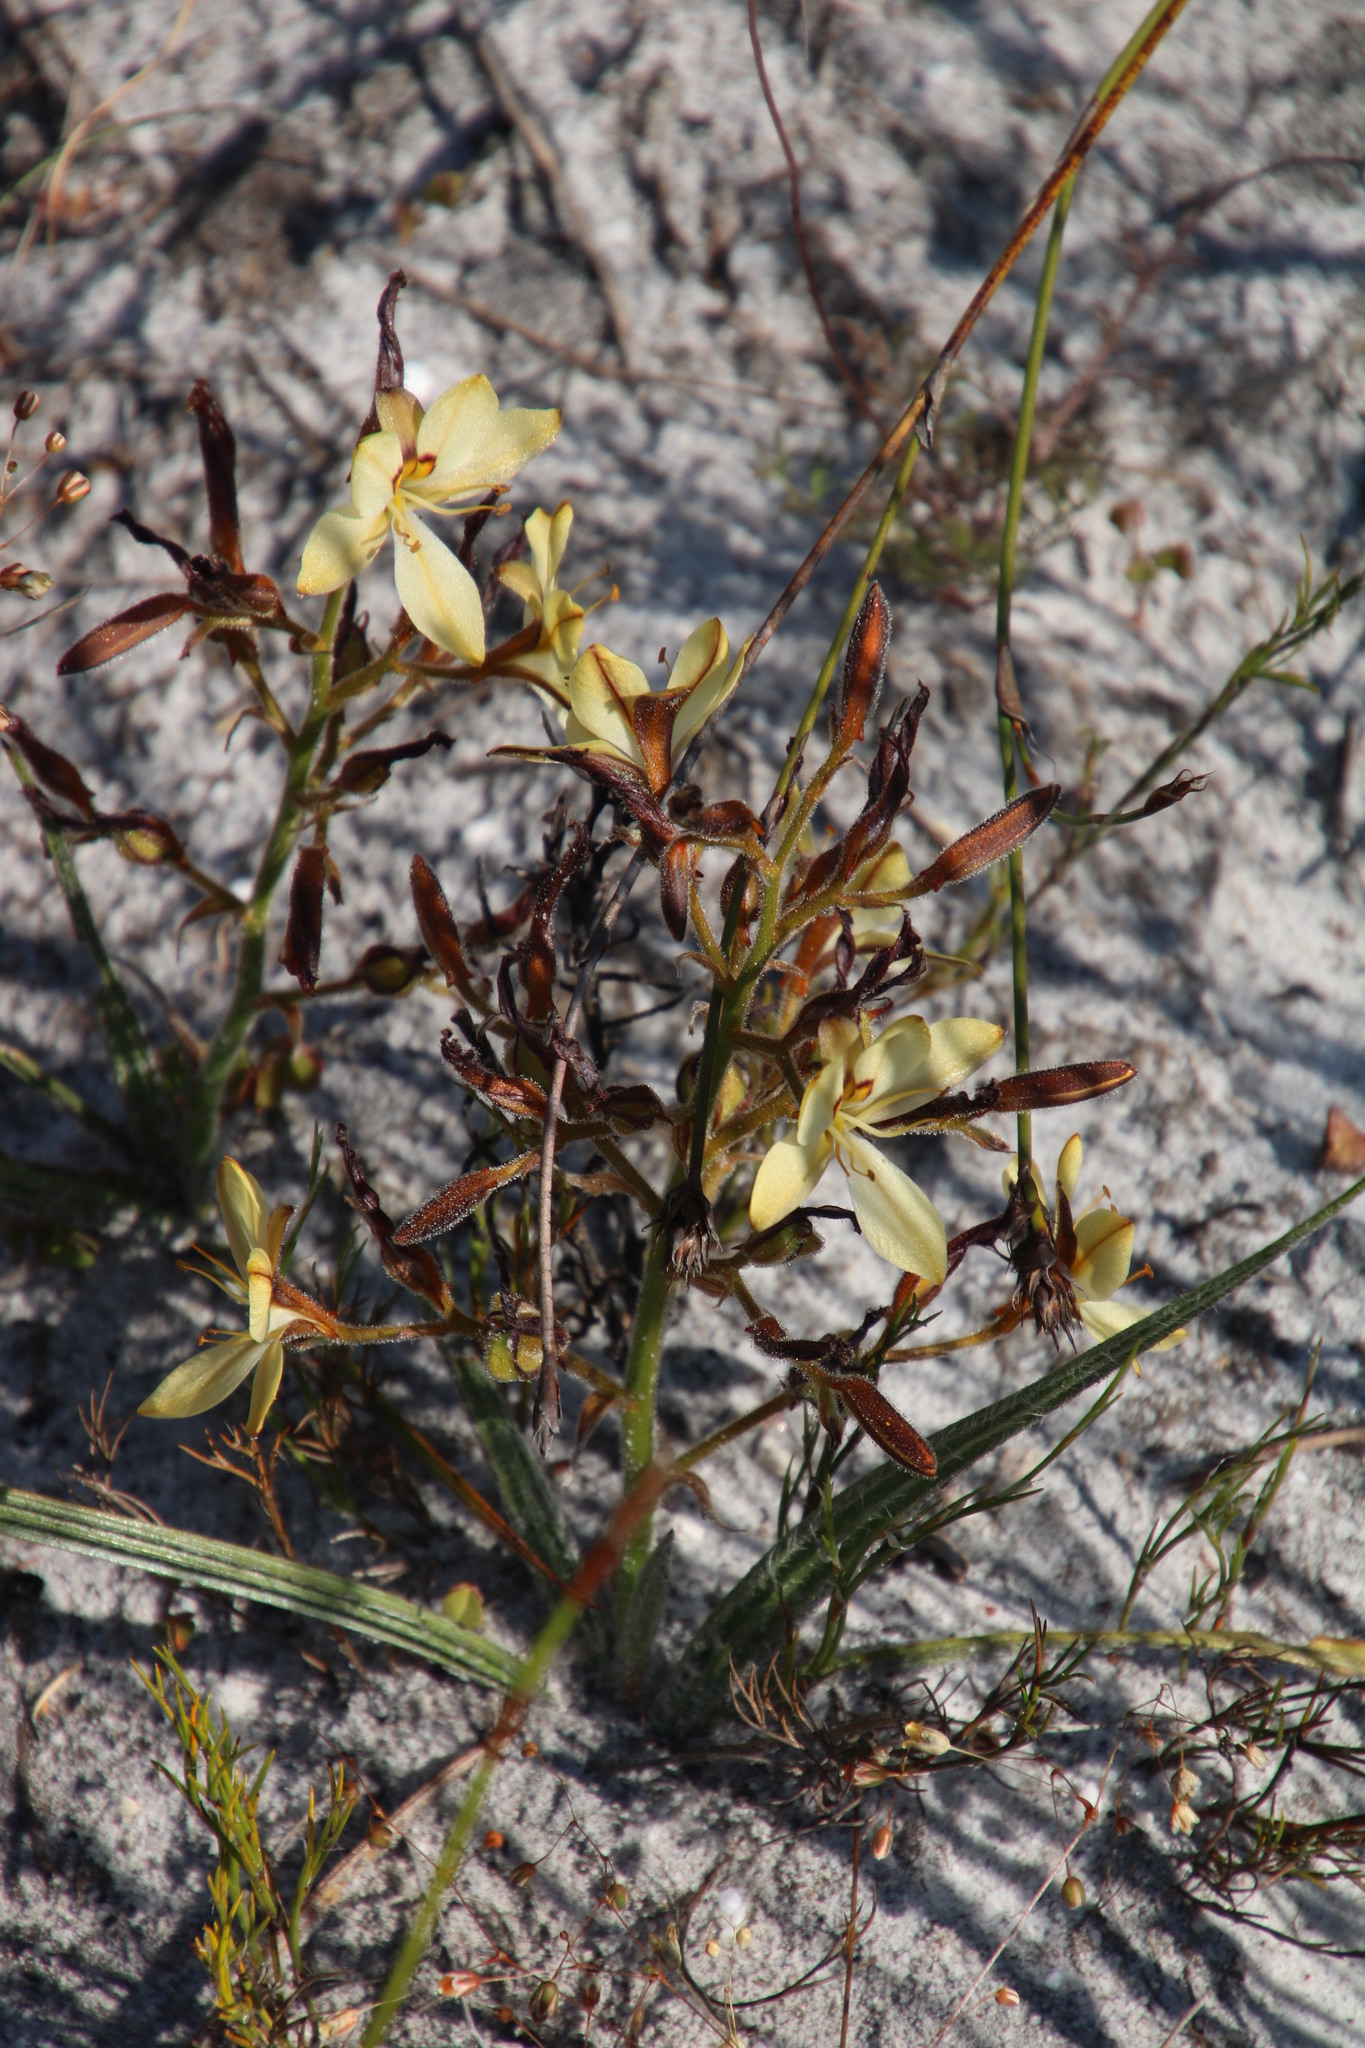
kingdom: Plantae
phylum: Tracheophyta
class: Liliopsida
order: Commelinales
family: Haemodoraceae
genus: Wachendorfia
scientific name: Wachendorfia paniculata
